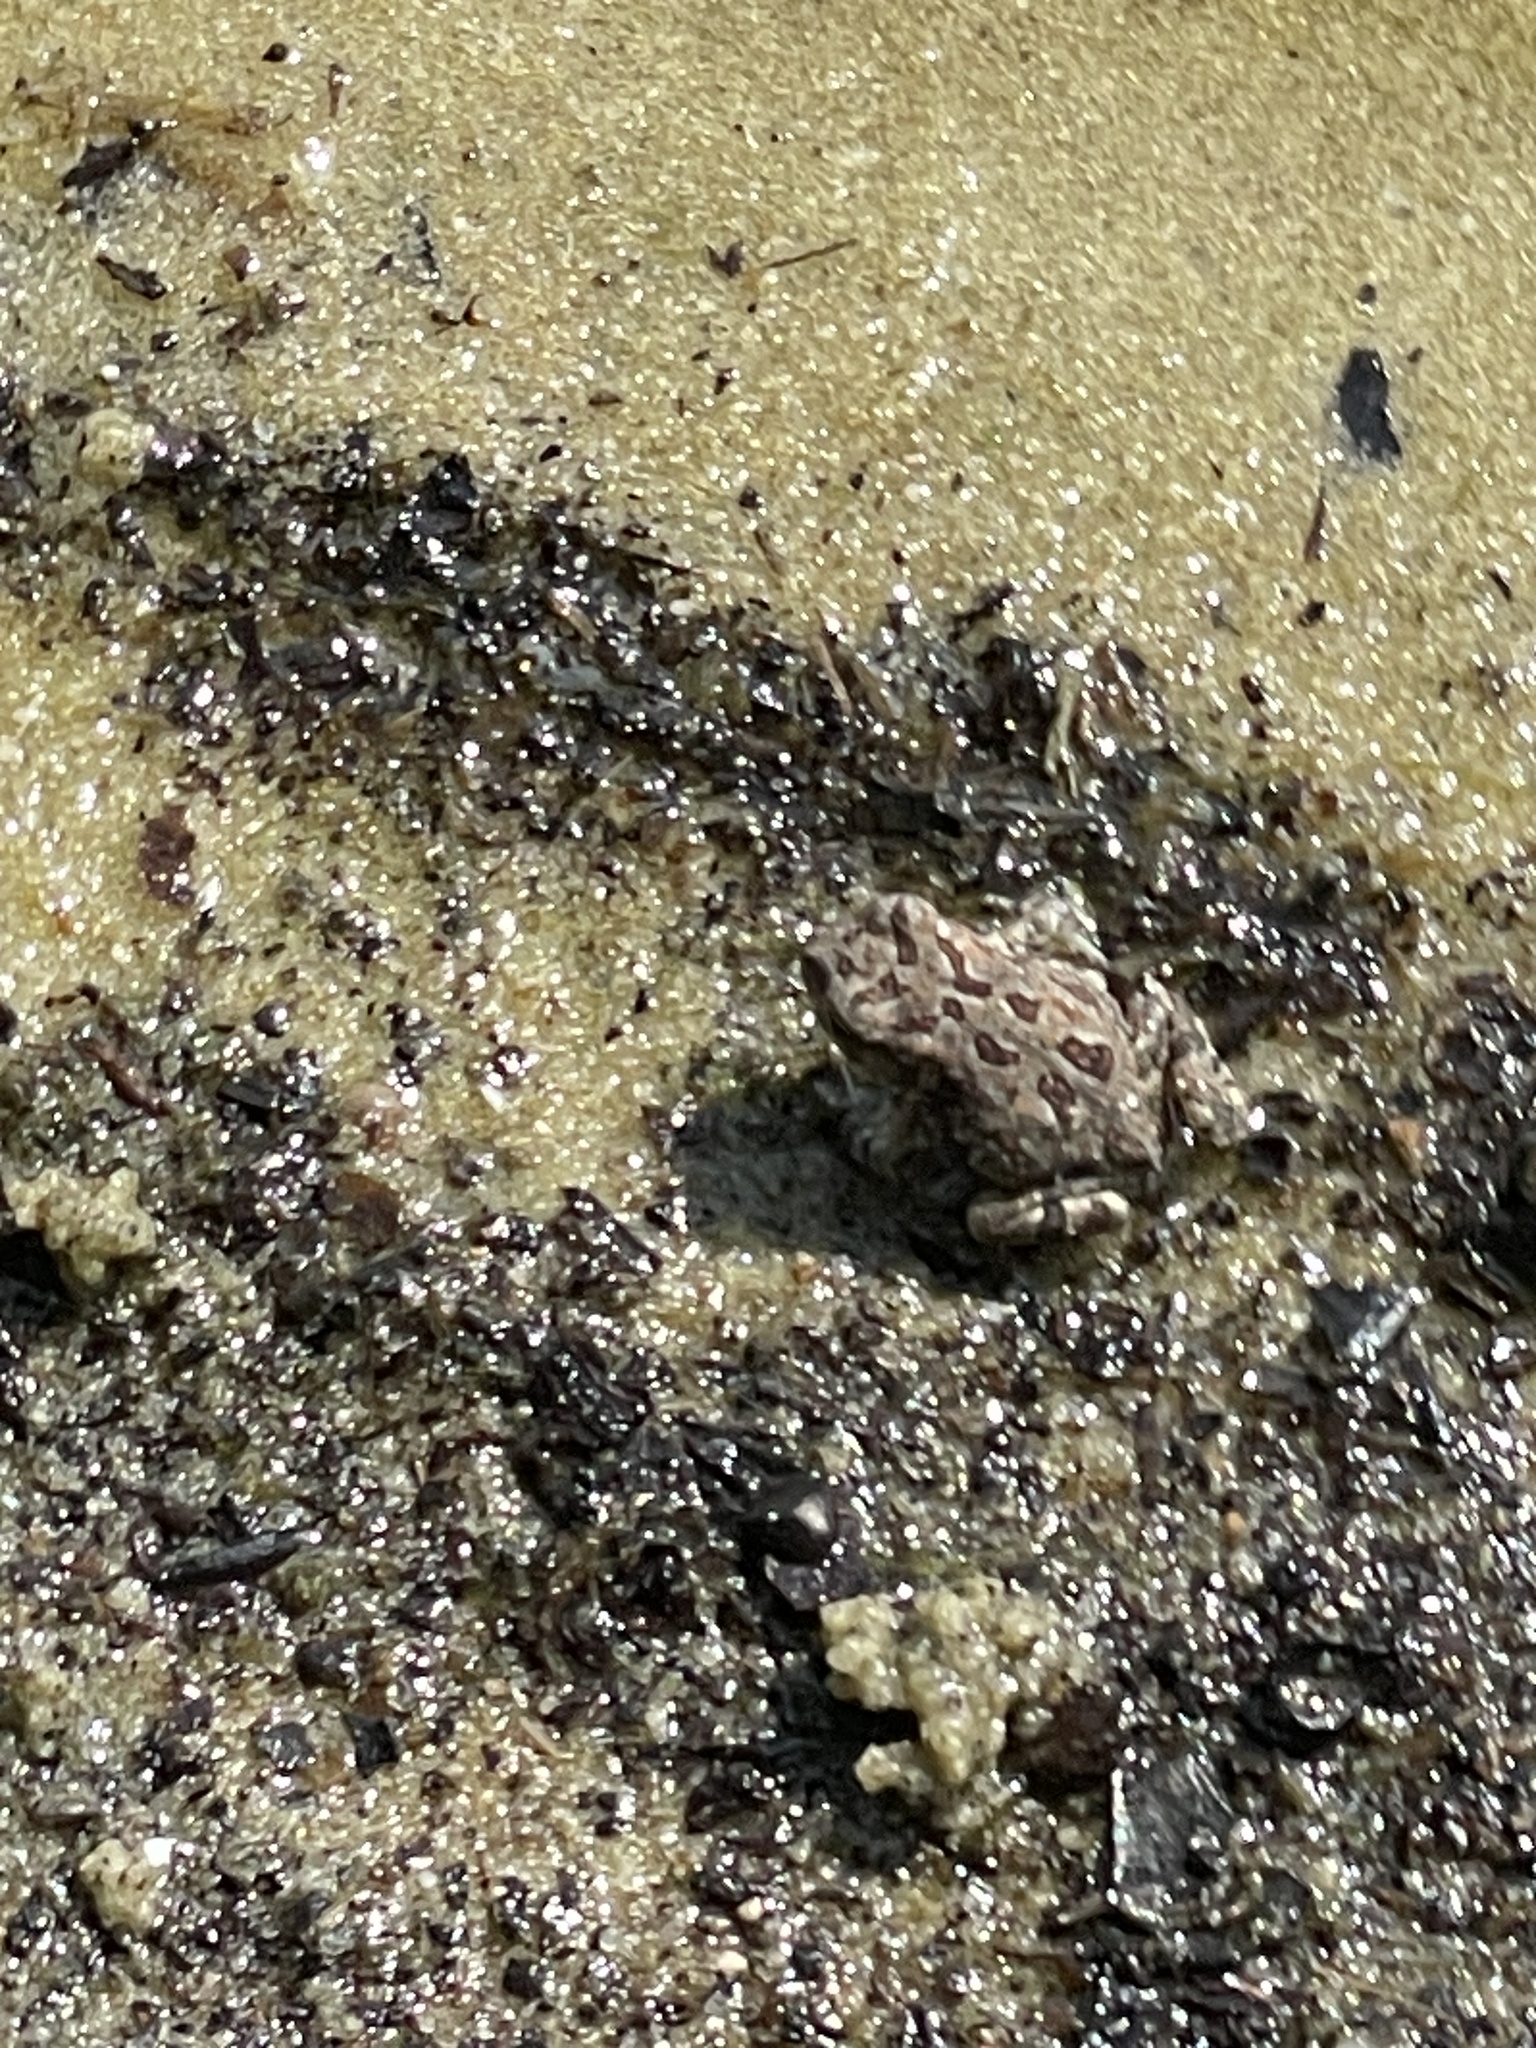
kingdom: Animalia
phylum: Chordata
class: Amphibia
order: Anura
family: Bufonidae
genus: Anaxyrus
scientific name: Anaxyrus fowleri
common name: Fowler's toad
